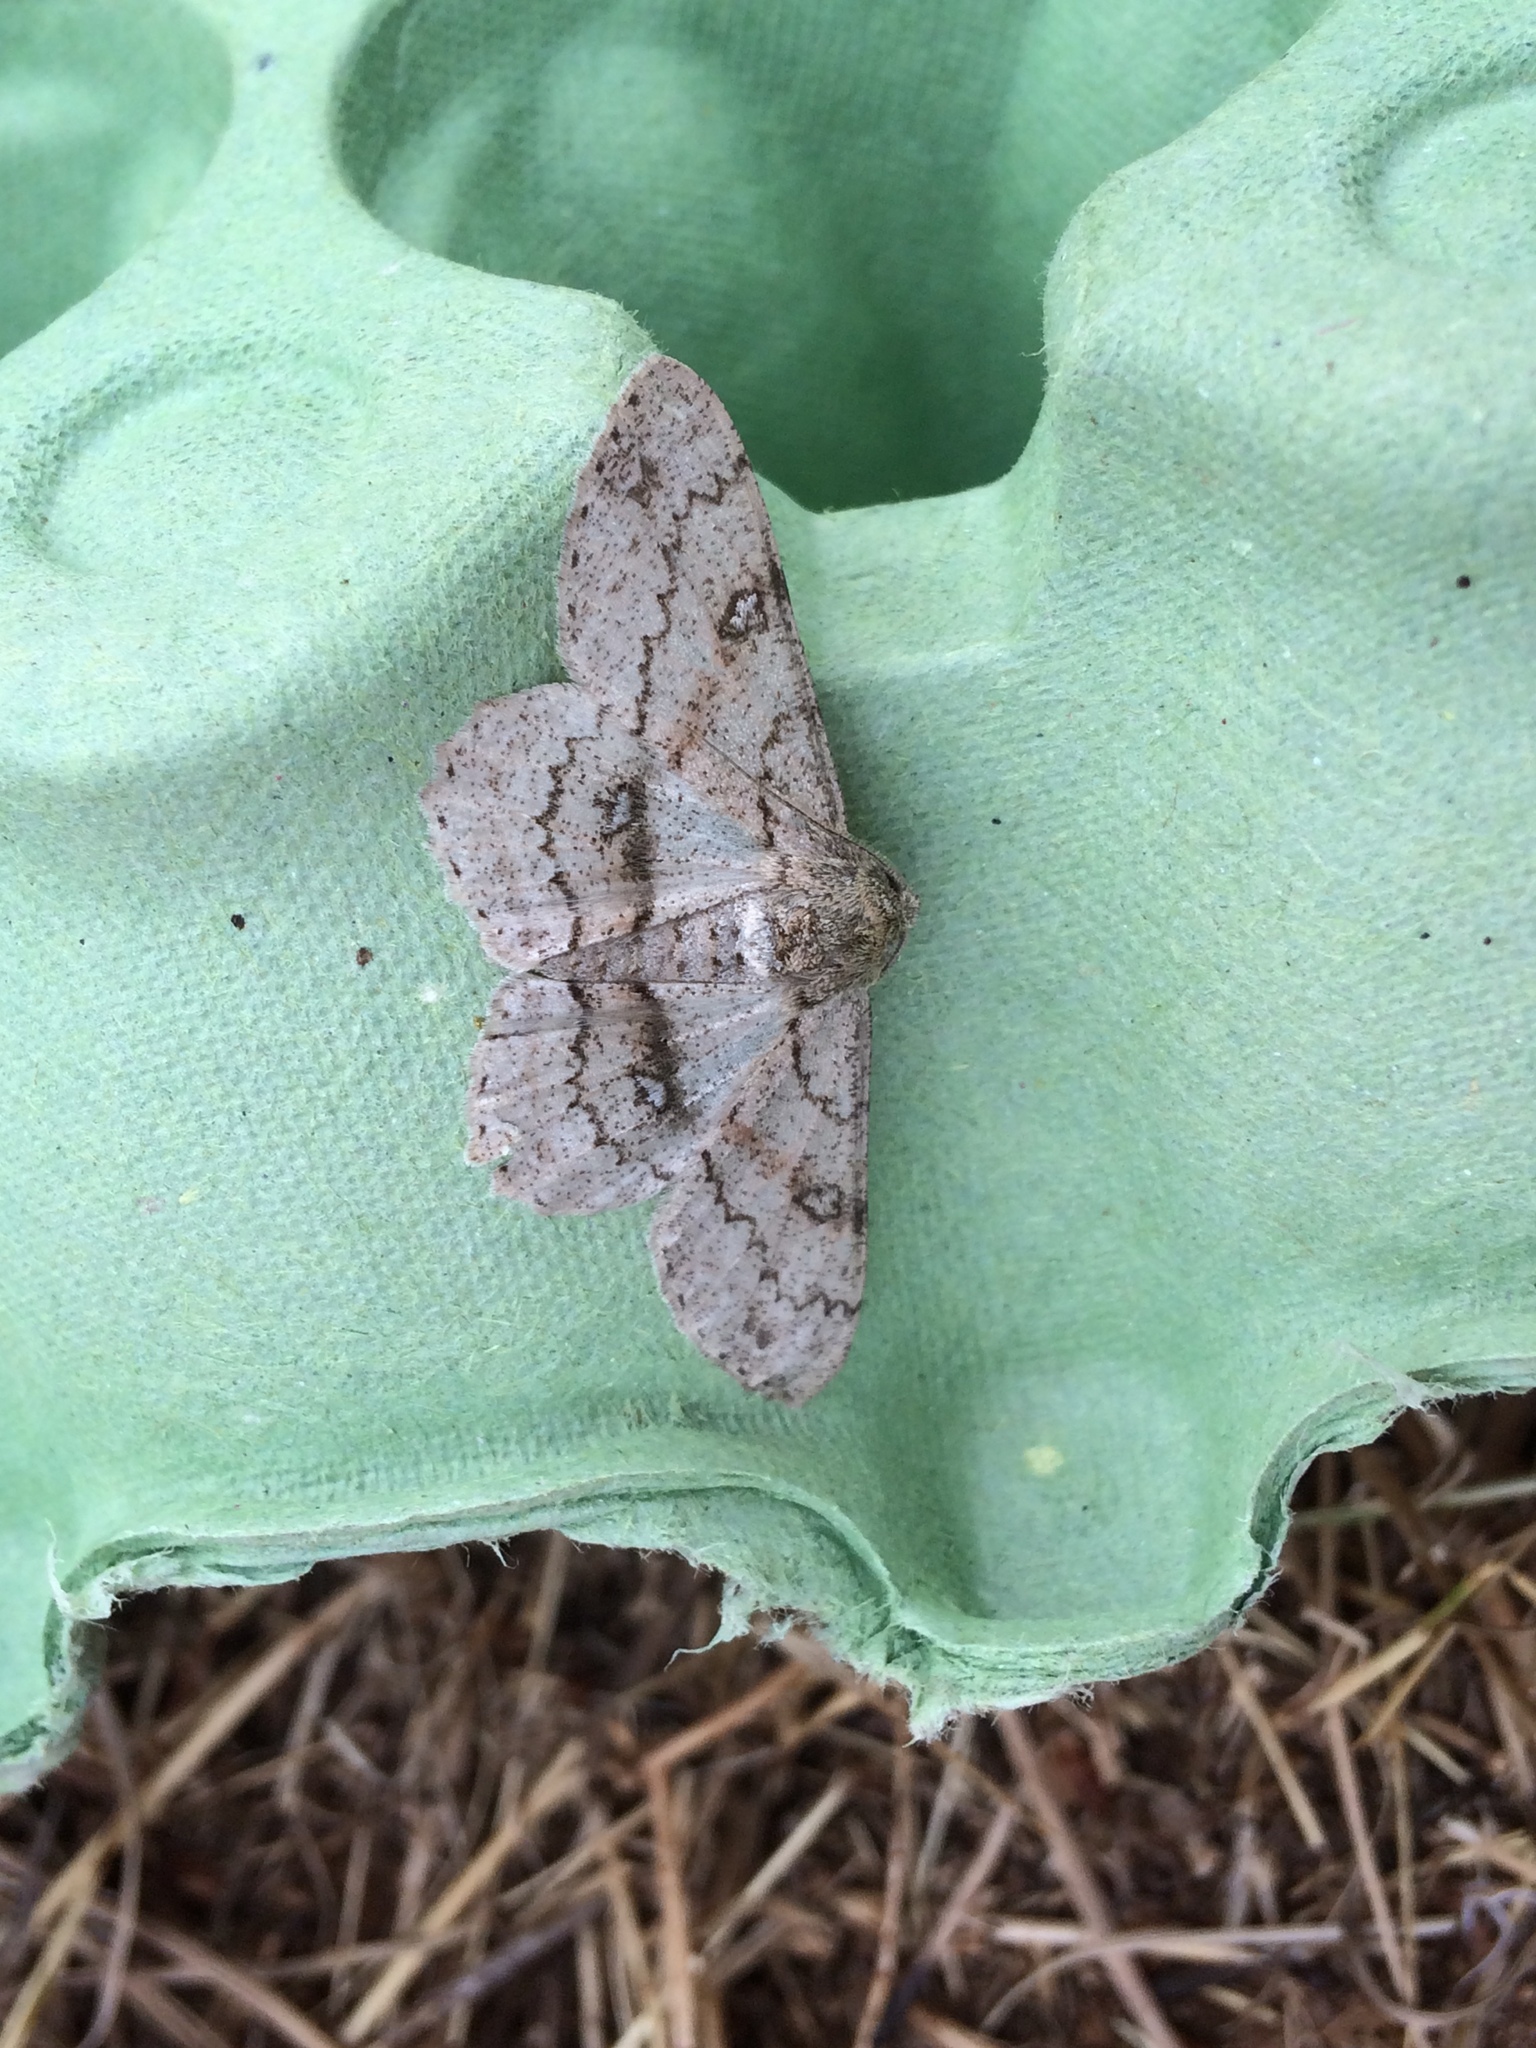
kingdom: Animalia
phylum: Arthropoda
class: Insecta
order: Lepidoptera
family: Geometridae
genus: Ascotis
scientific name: Ascotis selenaria
